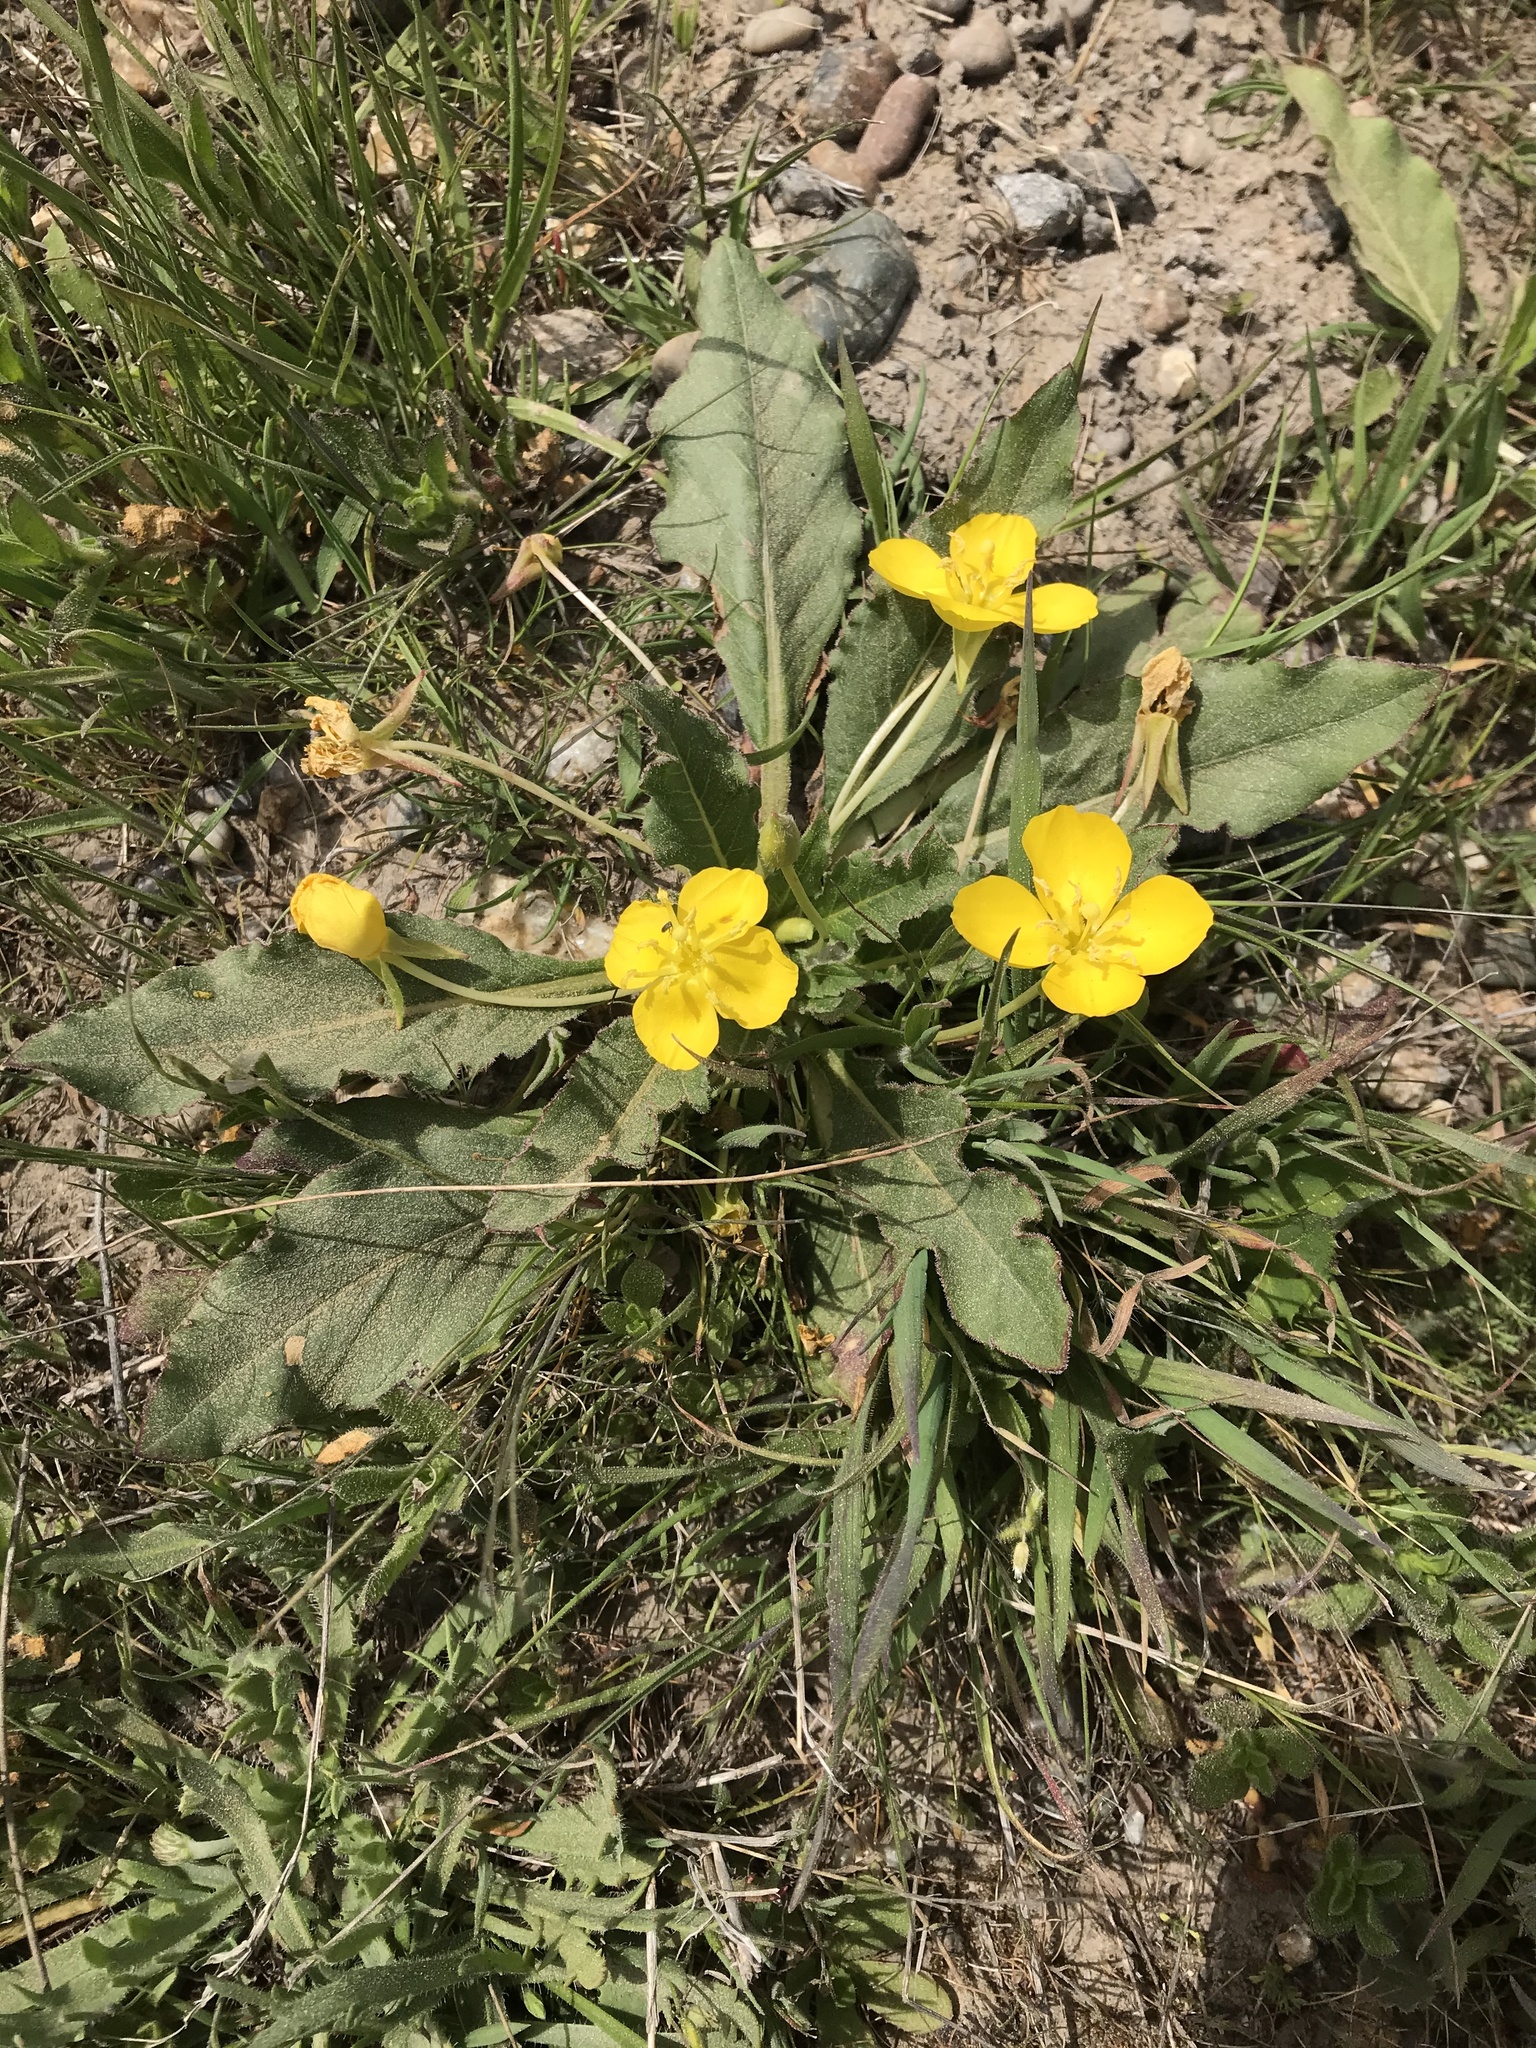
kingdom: Plantae
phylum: Tracheophyta
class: Magnoliopsida
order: Myrtales
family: Onagraceae
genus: Taraxia
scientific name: Taraxia ovata
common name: Goldeneggs
